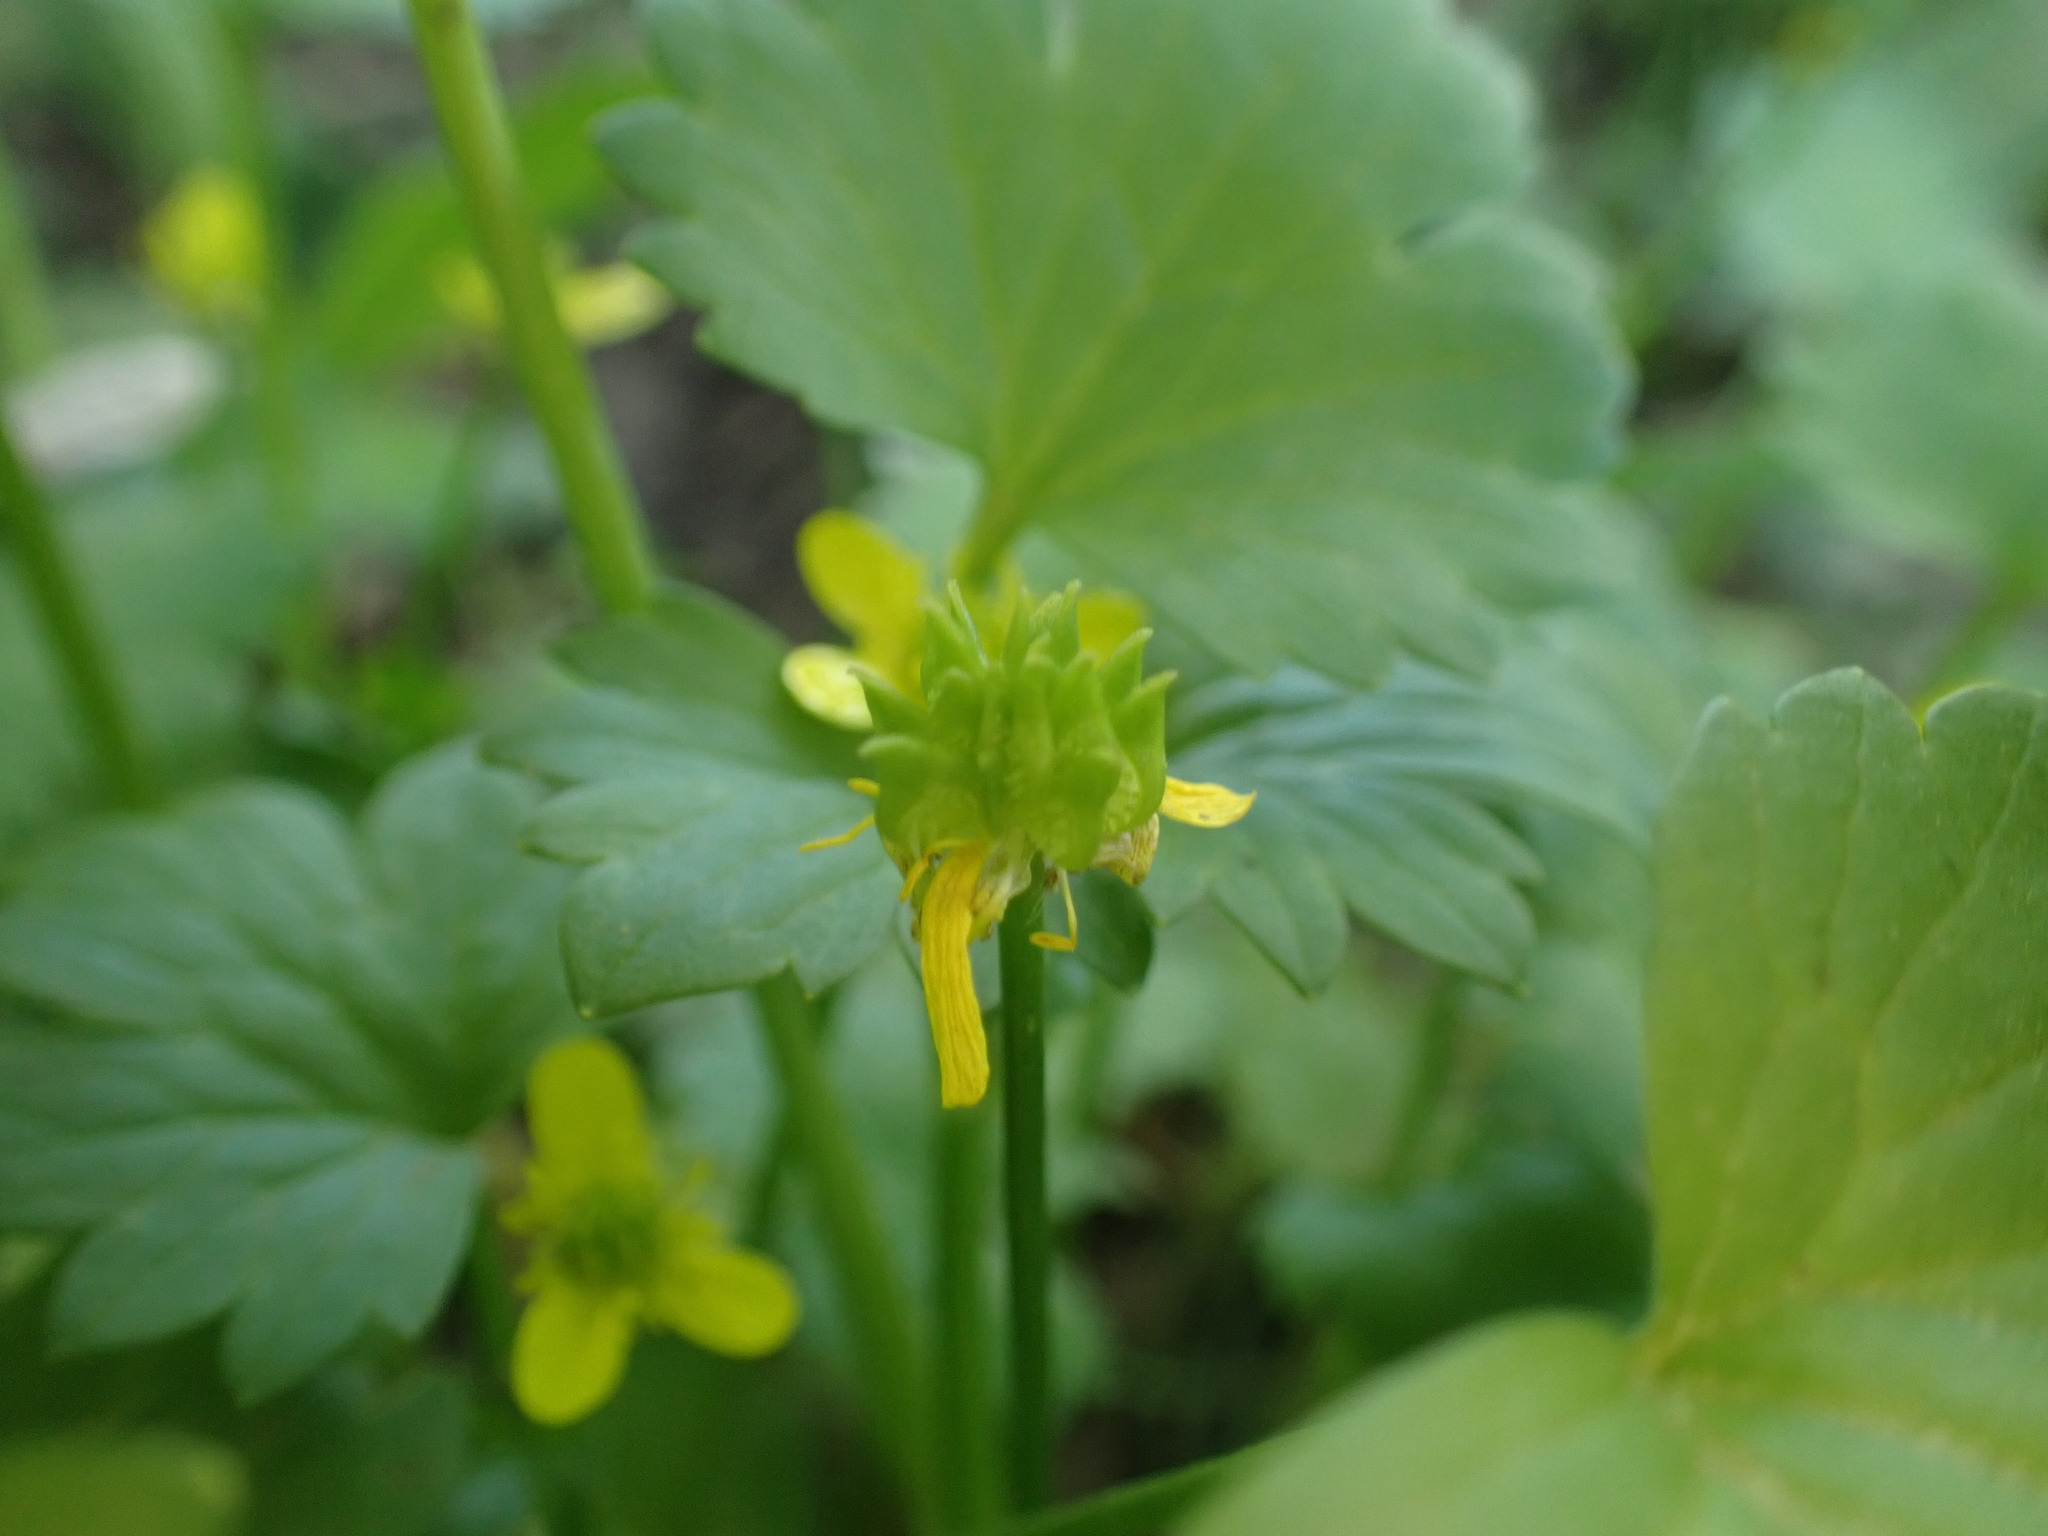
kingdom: Plantae
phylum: Tracheophyta
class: Magnoliopsida
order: Ranunculales
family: Ranunculaceae
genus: Ranunculus
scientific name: Ranunculus muricatus
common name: Rough-fruited buttercup
